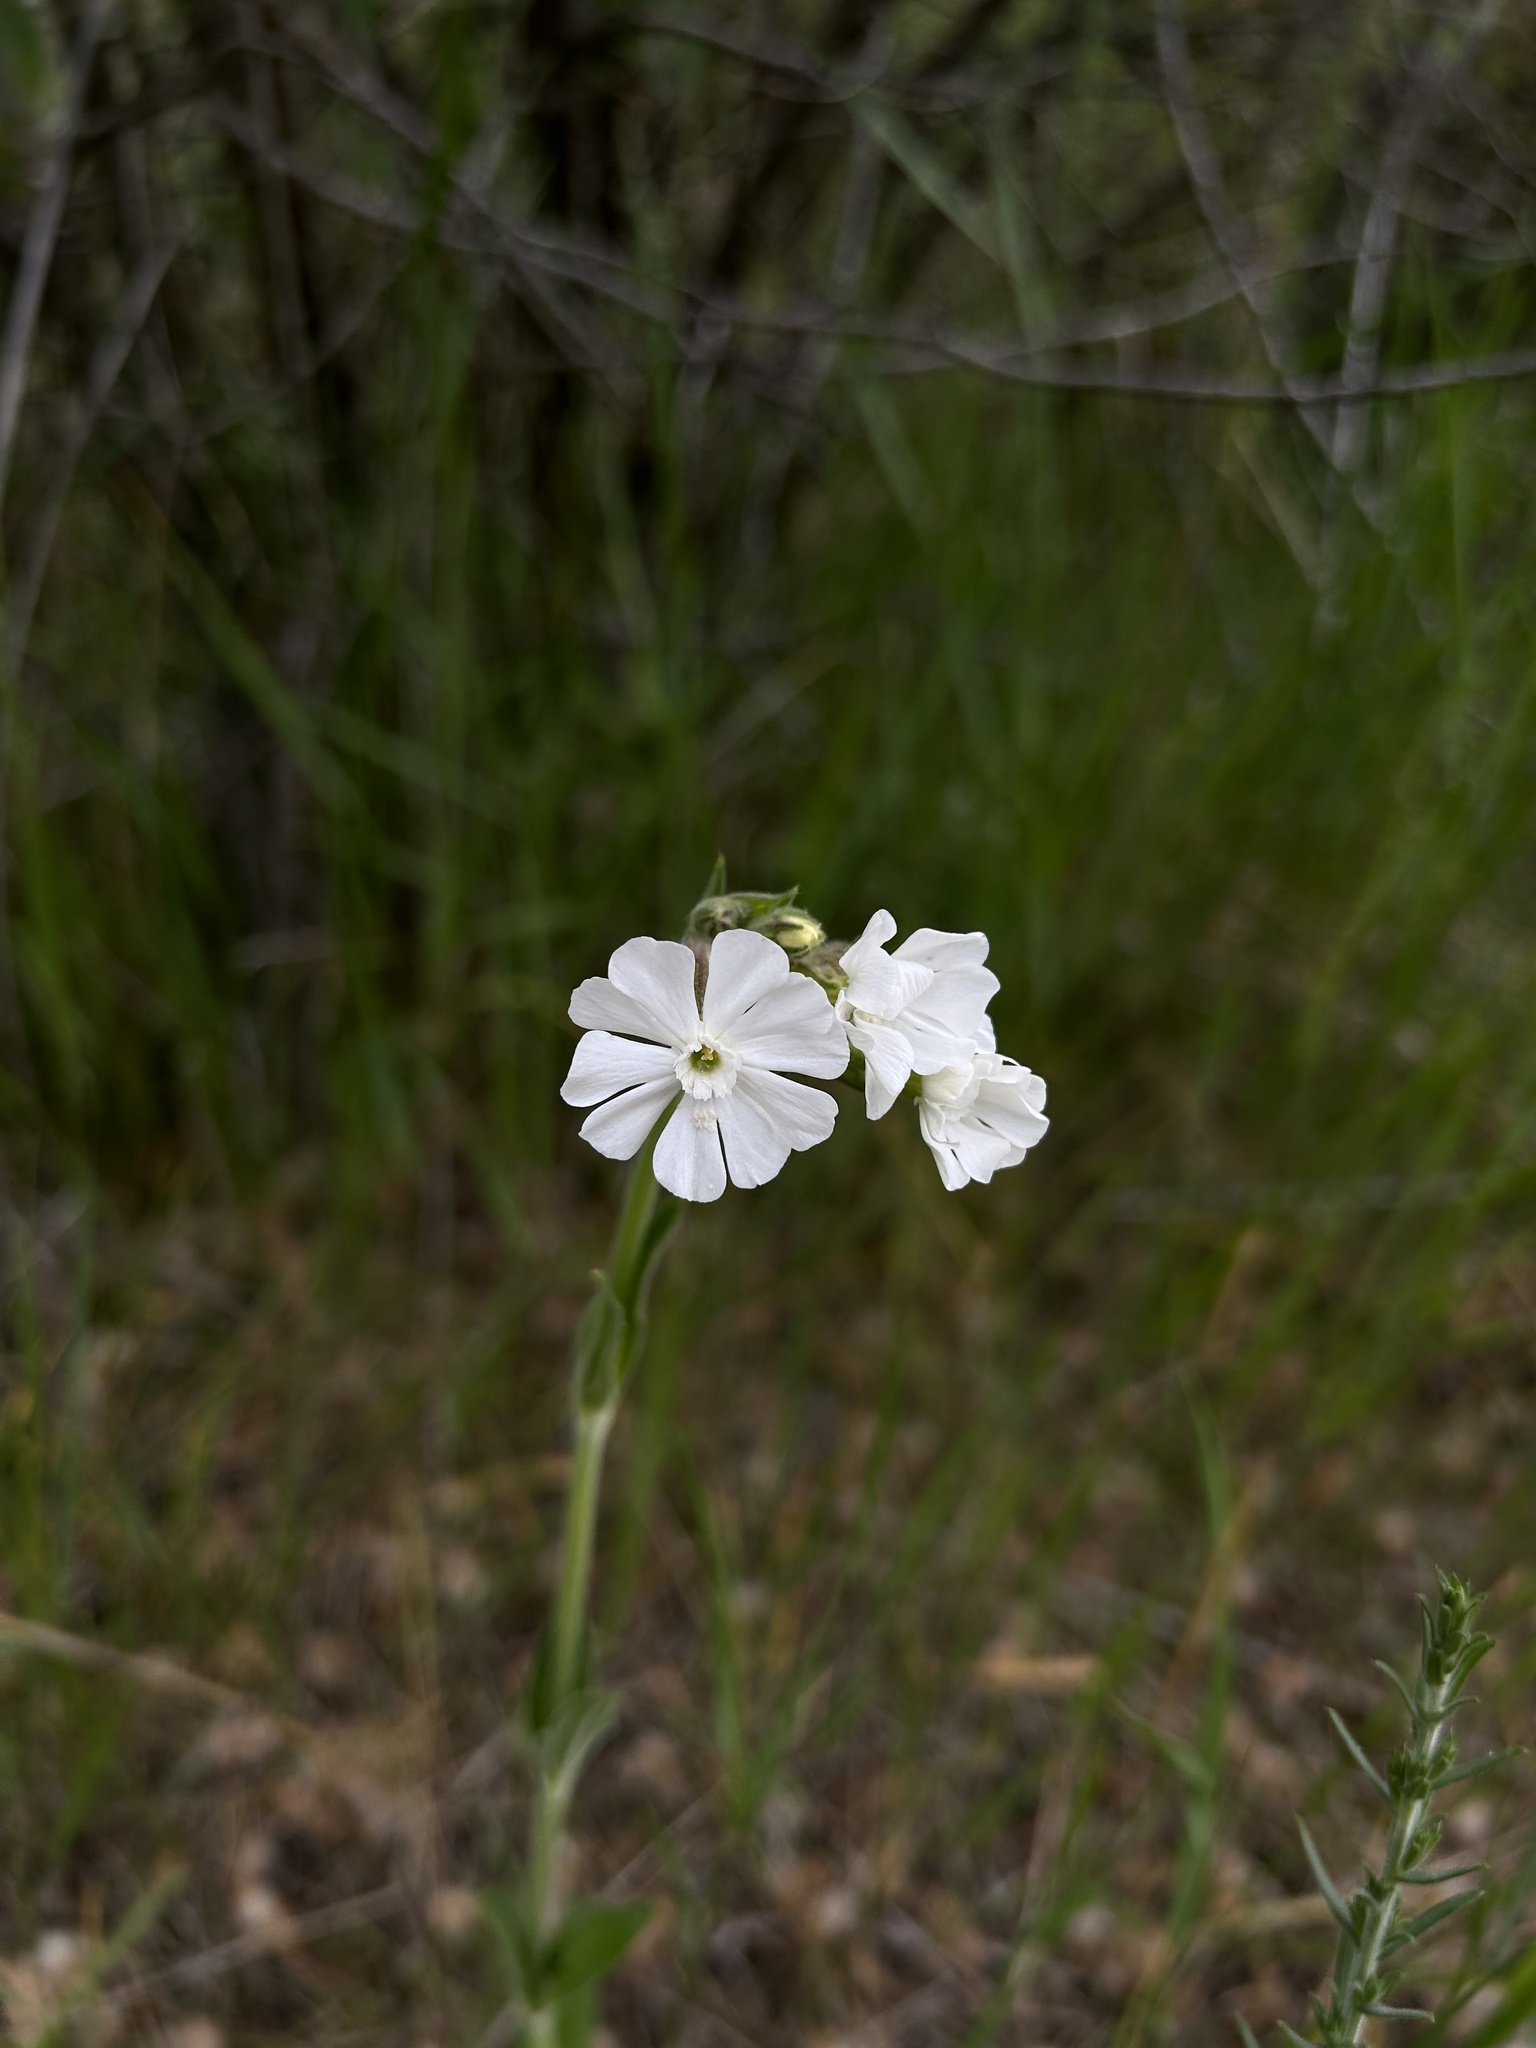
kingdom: Plantae
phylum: Tracheophyta
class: Magnoliopsida
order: Caryophyllales
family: Caryophyllaceae
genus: Silene
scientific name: Silene latifolia
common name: White campion
